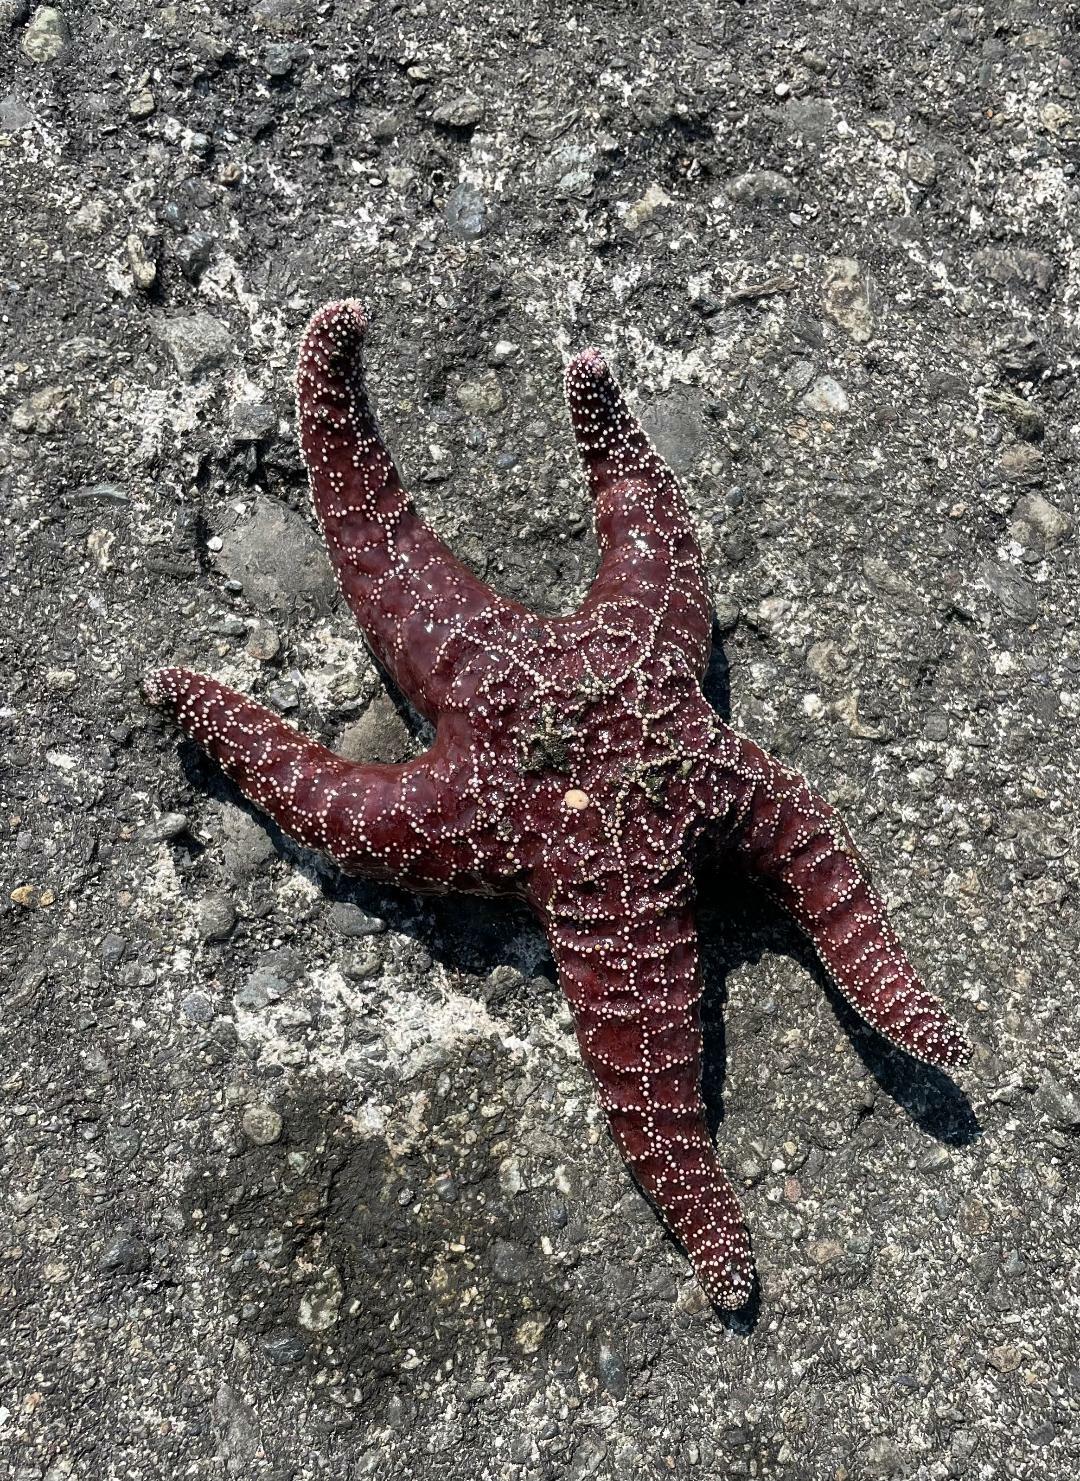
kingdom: Animalia
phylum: Echinodermata
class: Asteroidea
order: Forcipulatida
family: Asteriidae
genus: Pisaster
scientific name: Pisaster ochraceus
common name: Ochre stars
